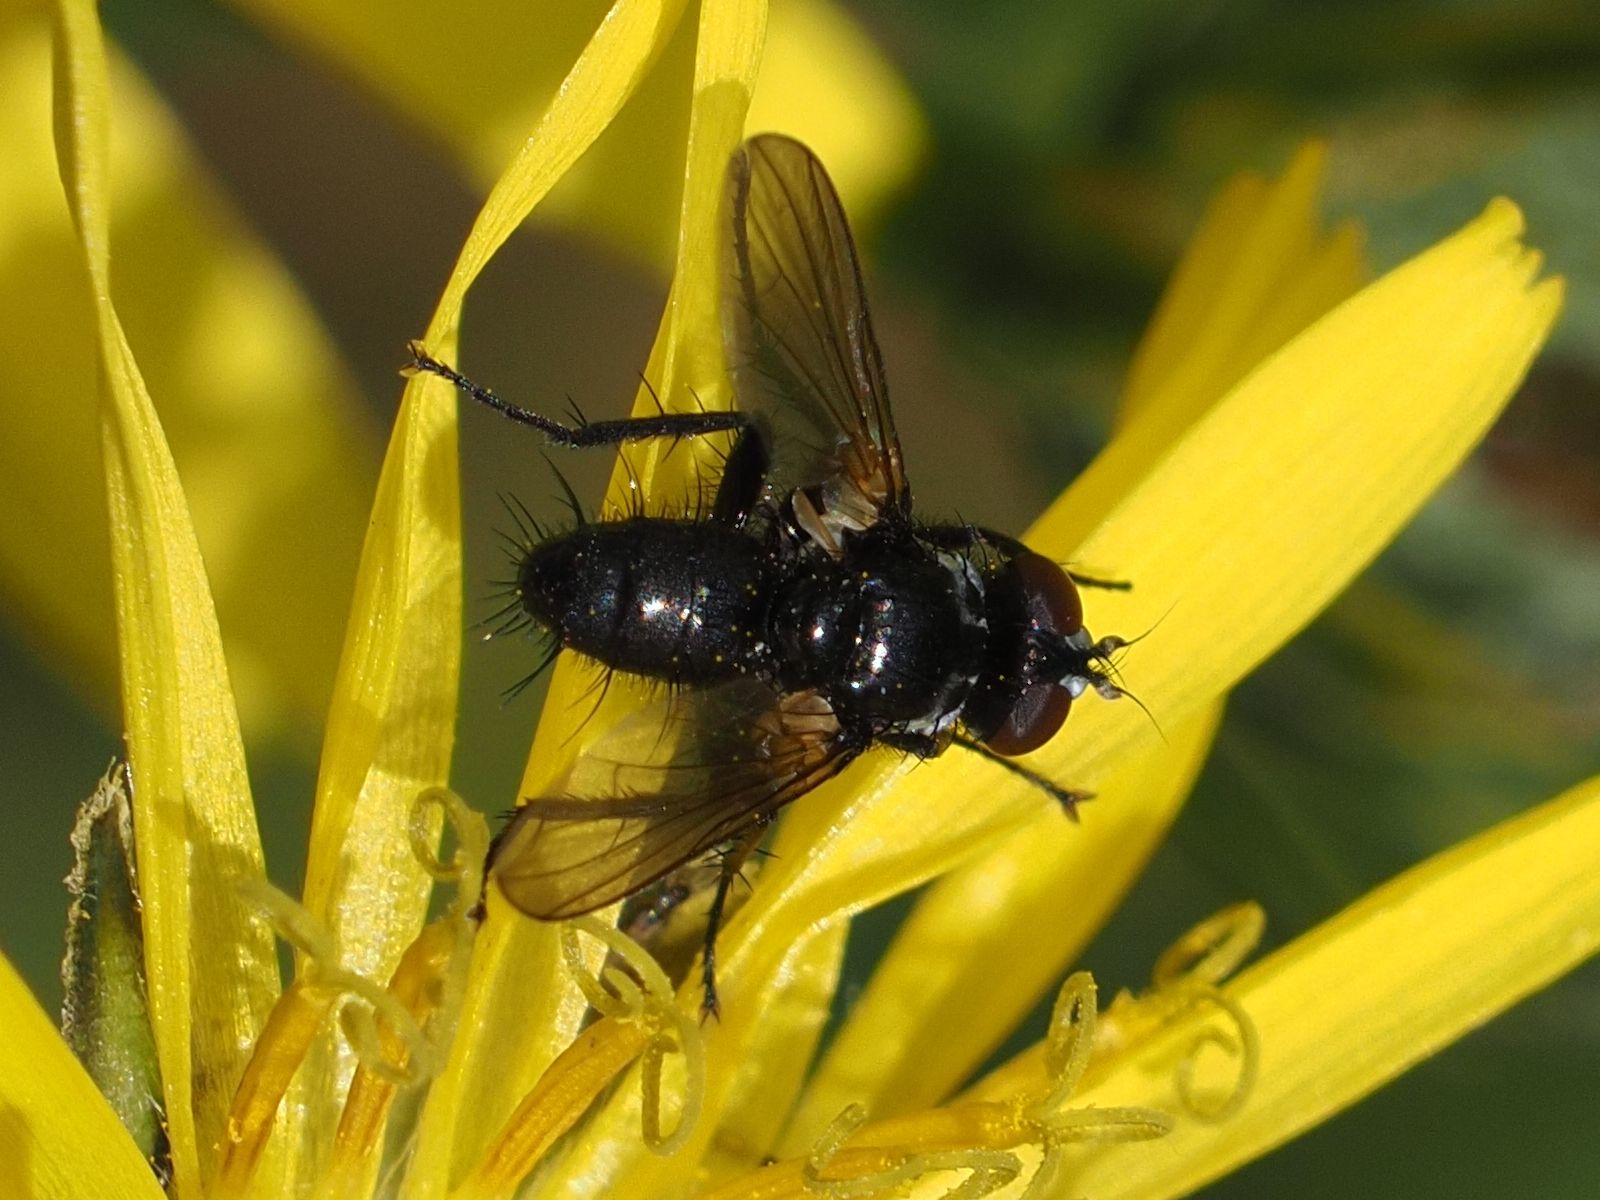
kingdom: Animalia
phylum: Arthropoda
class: Insecta
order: Diptera
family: Tachinidae
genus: Phania
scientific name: Phania funesta
